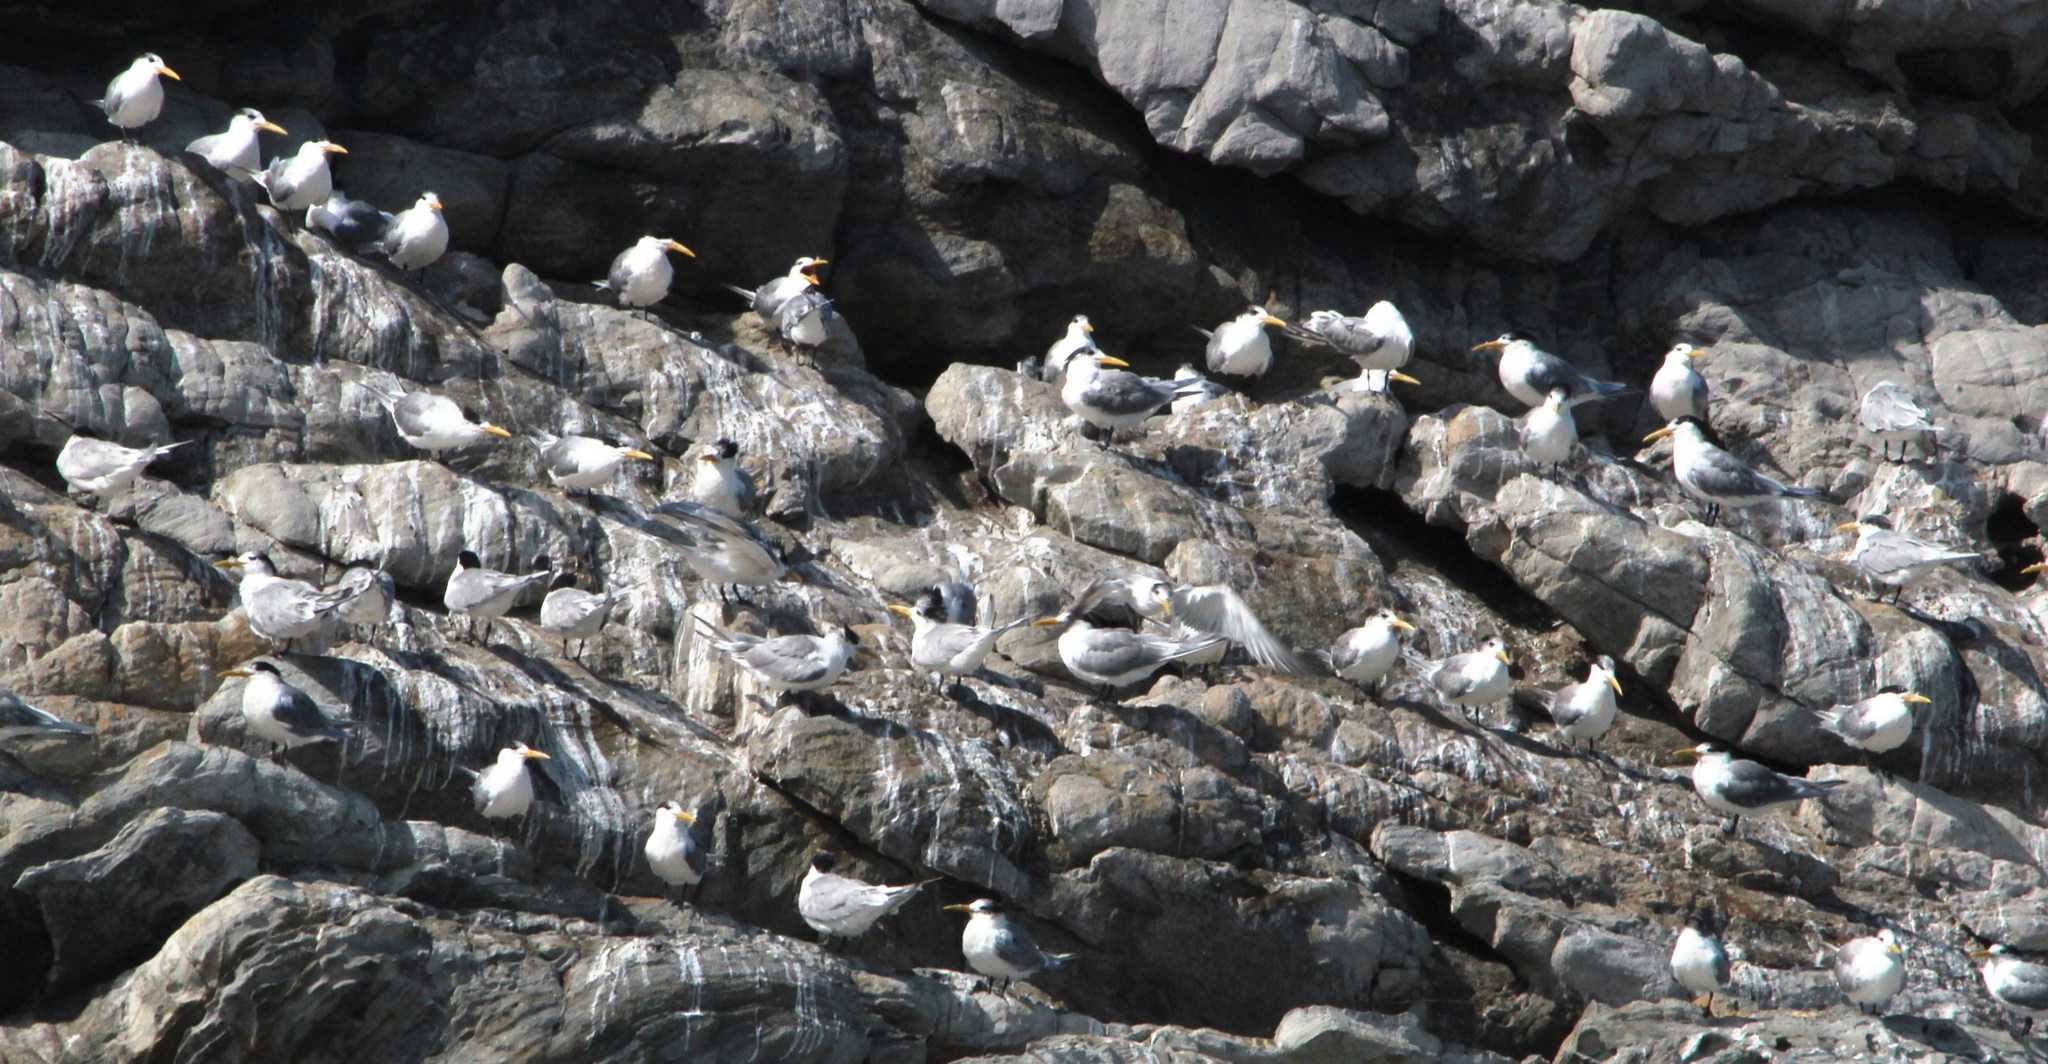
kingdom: Animalia
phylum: Chordata
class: Aves
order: Charadriiformes
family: Laridae
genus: Thalasseus
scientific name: Thalasseus bergii
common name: Greater crested tern
